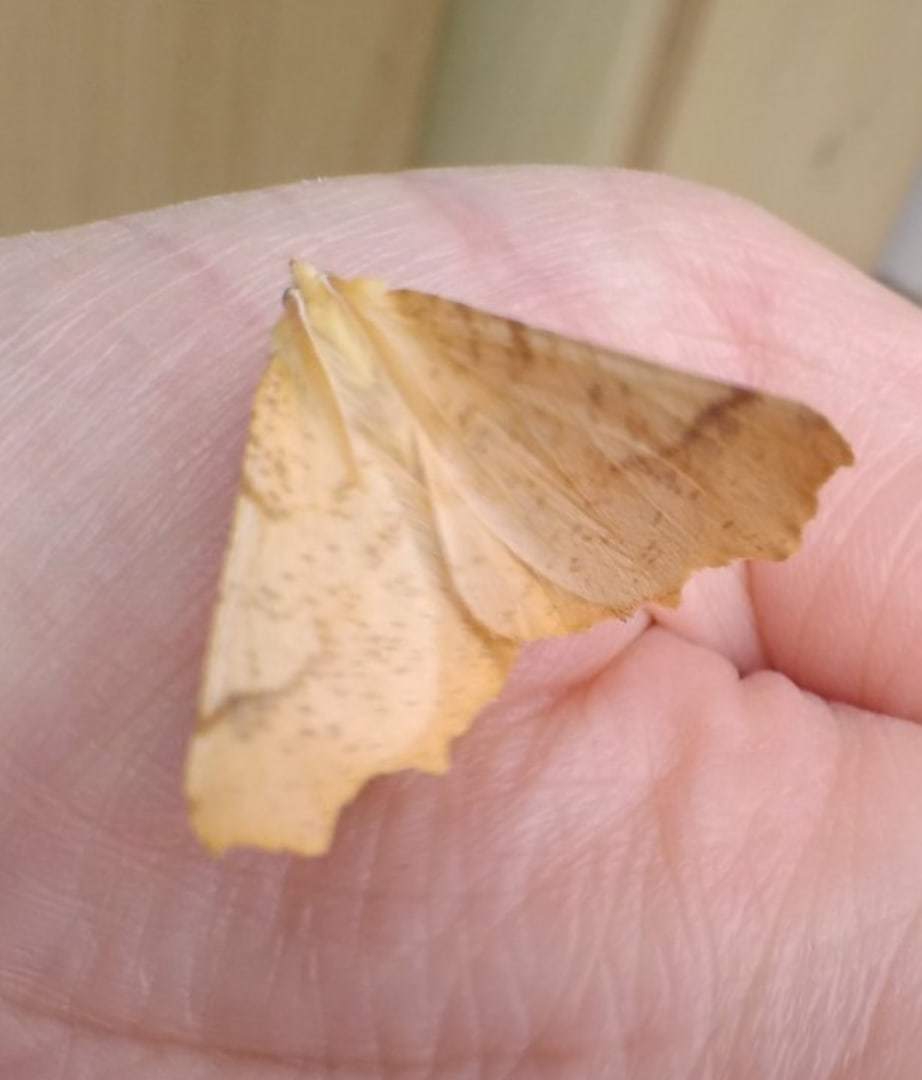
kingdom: Animalia
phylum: Arthropoda
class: Insecta
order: Lepidoptera
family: Geometridae
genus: Ennomos
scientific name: Ennomos autumnaria
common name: Large thorn
